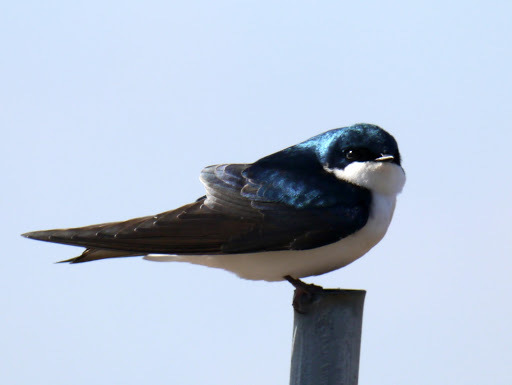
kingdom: Animalia
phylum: Chordata
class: Aves
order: Passeriformes
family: Hirundinidae
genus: Tachycineta
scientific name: Tachycineta bicolor
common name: Tree swallow
